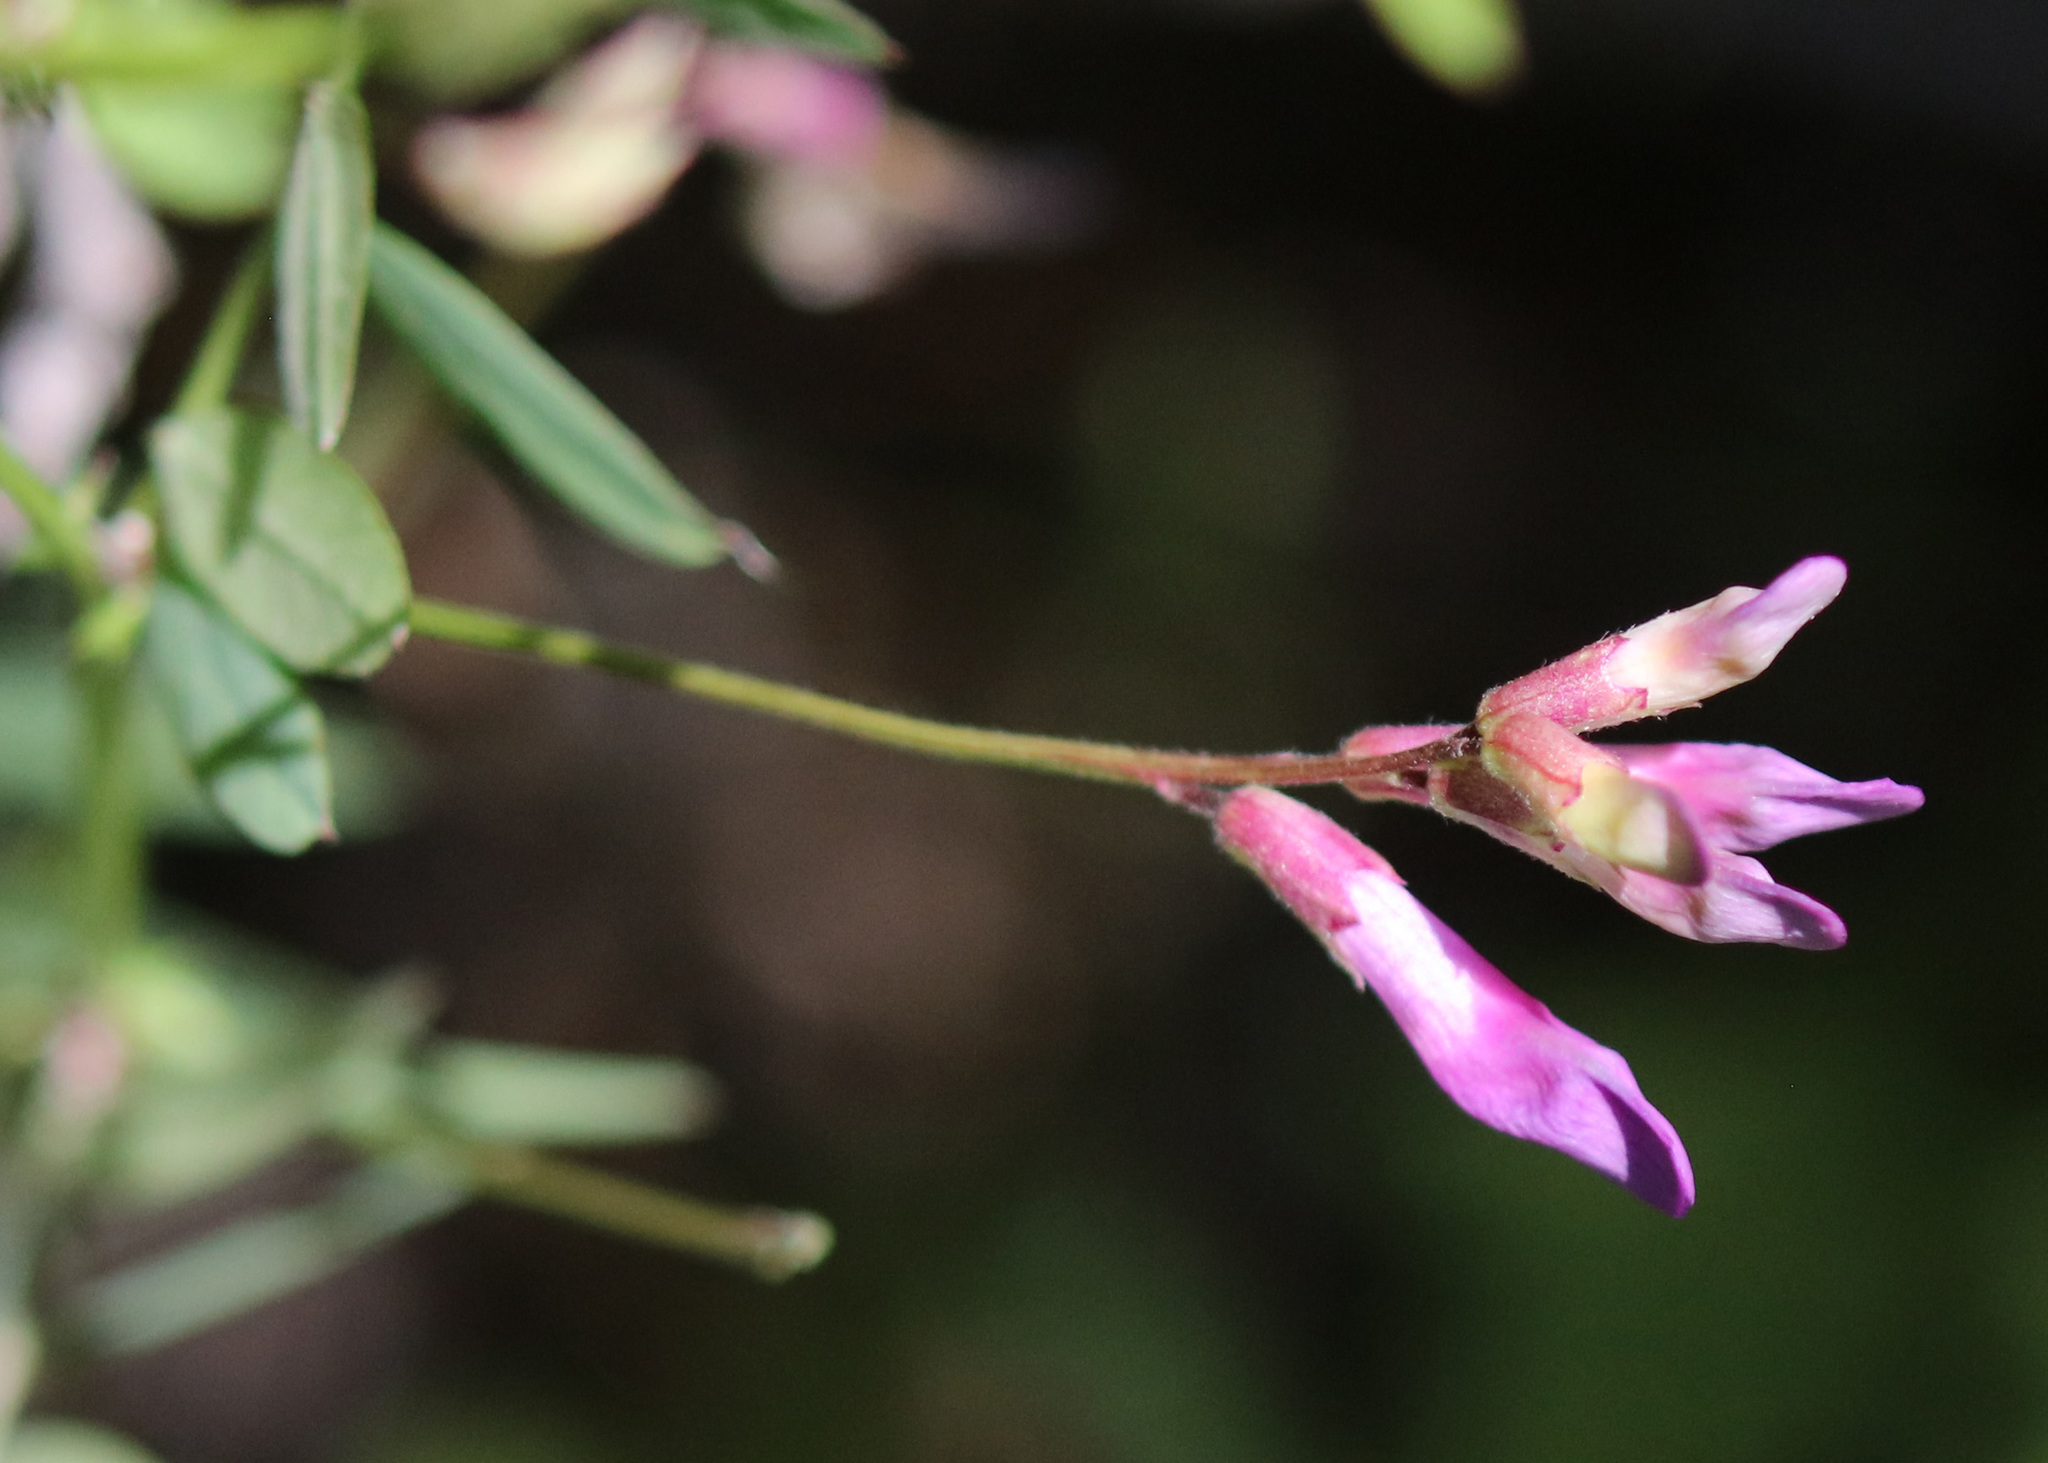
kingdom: Plantae
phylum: Tracheophyta
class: Magnoliopsida
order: Fabales
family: Fabaceae
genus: Vicia
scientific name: Vicia americana
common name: American vetch
